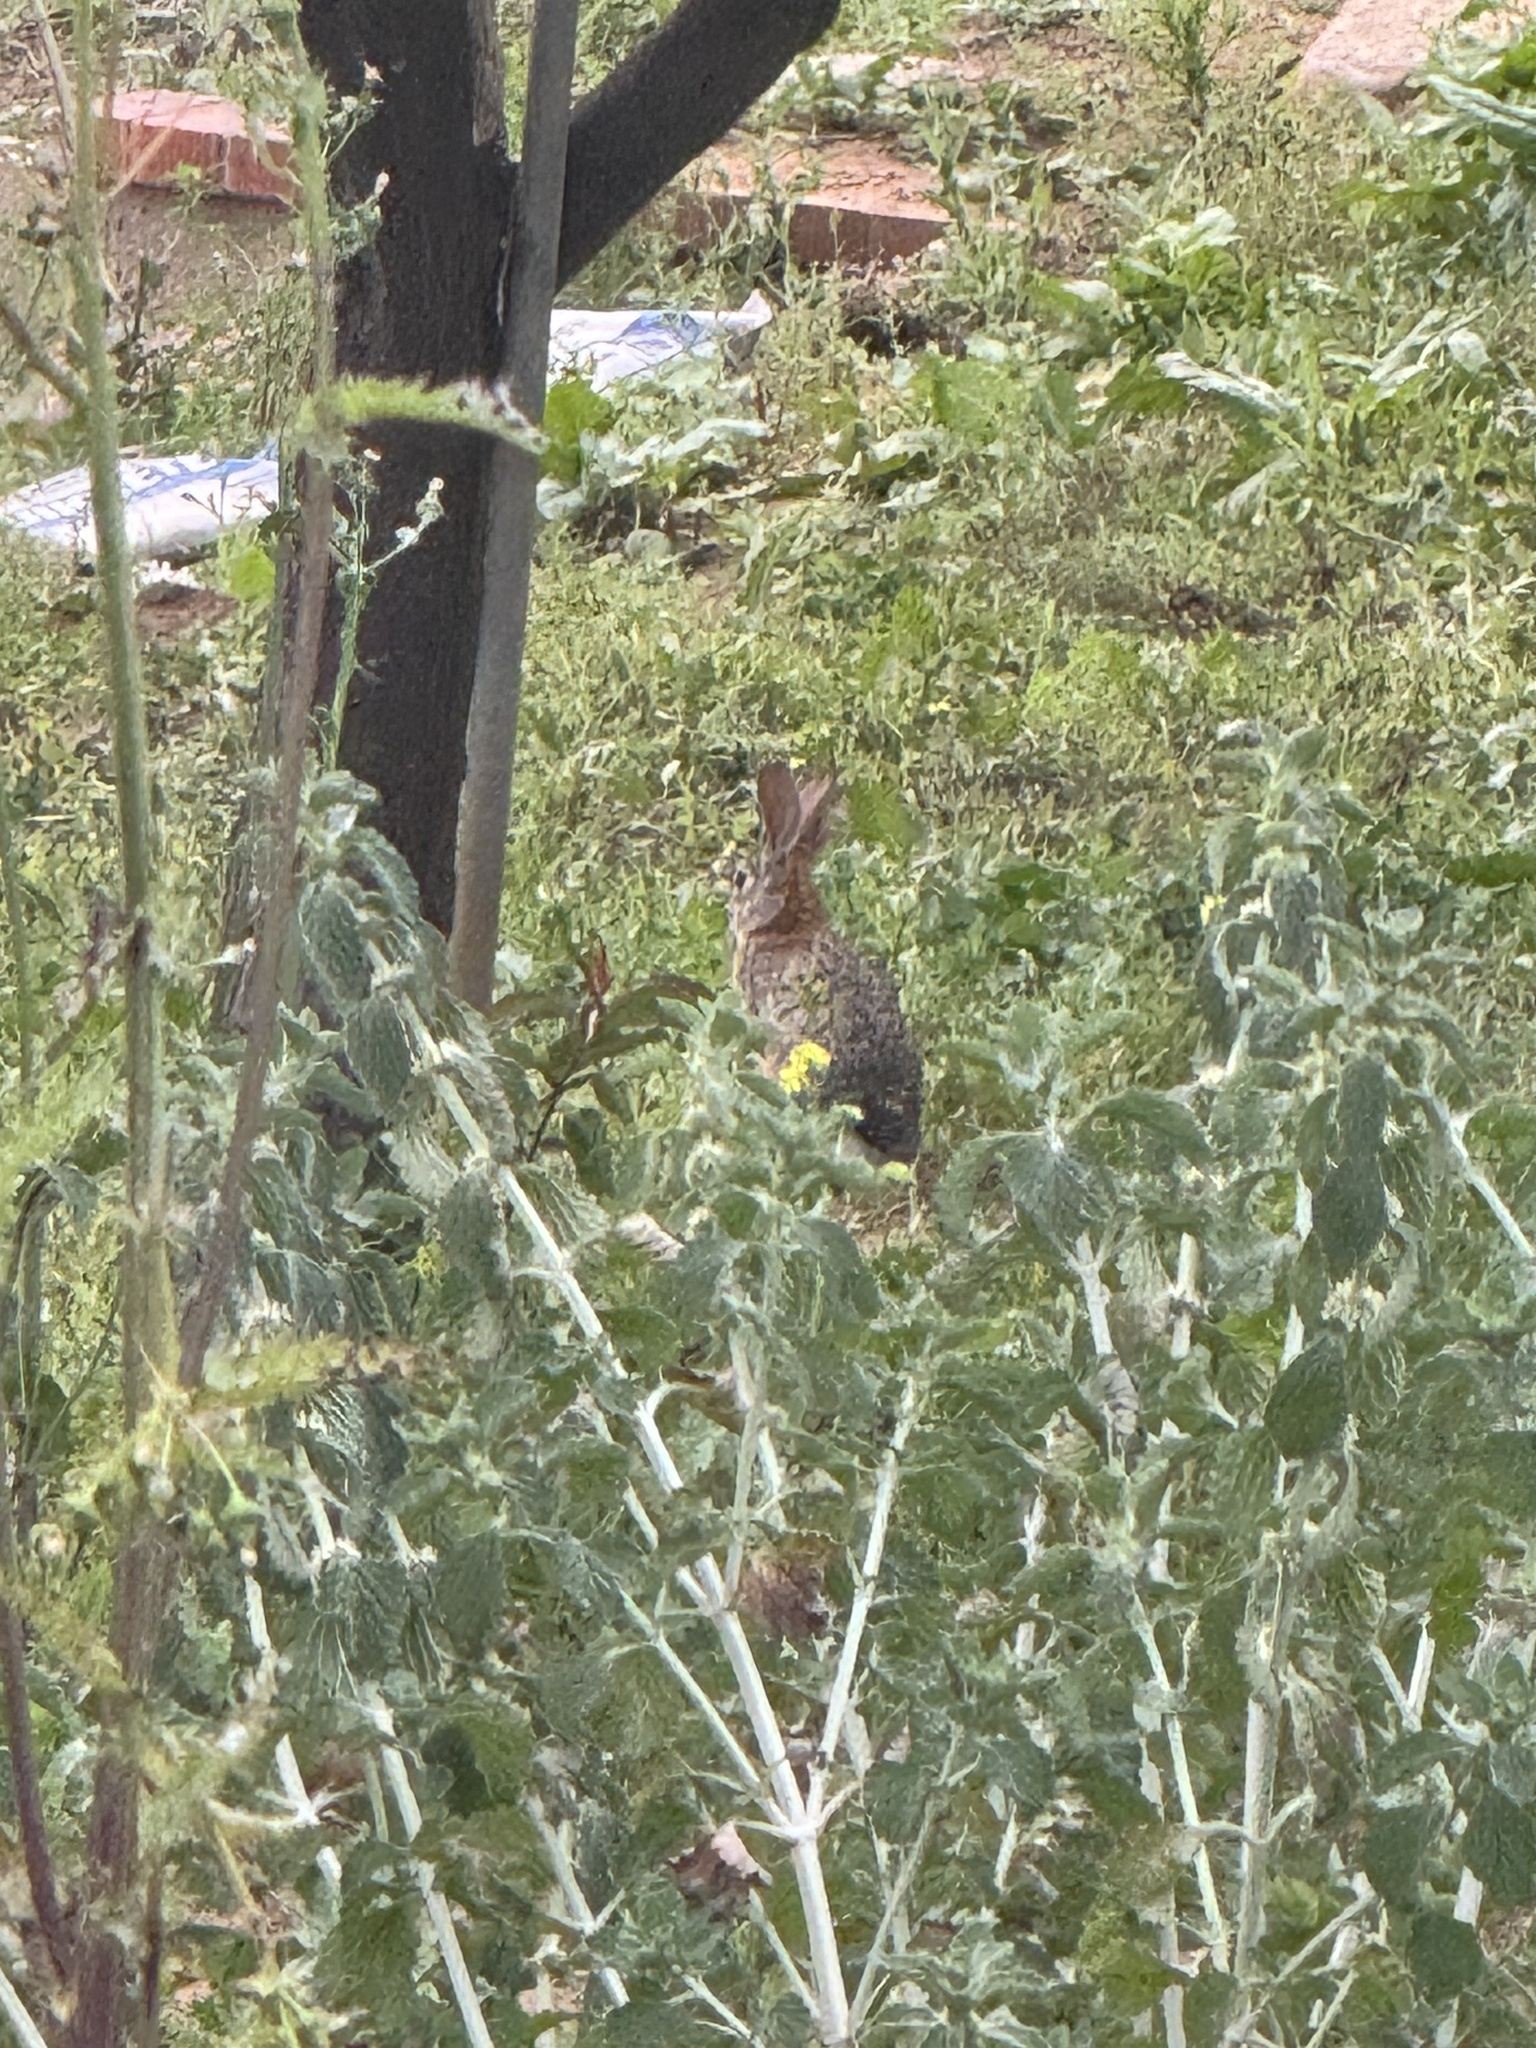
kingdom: Animalia
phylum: Chordata
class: Mammalia
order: Lagomorpha
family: Leporidae
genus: Sylvilagus
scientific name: Sylvilagus audubonii
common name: Desert cottontail
